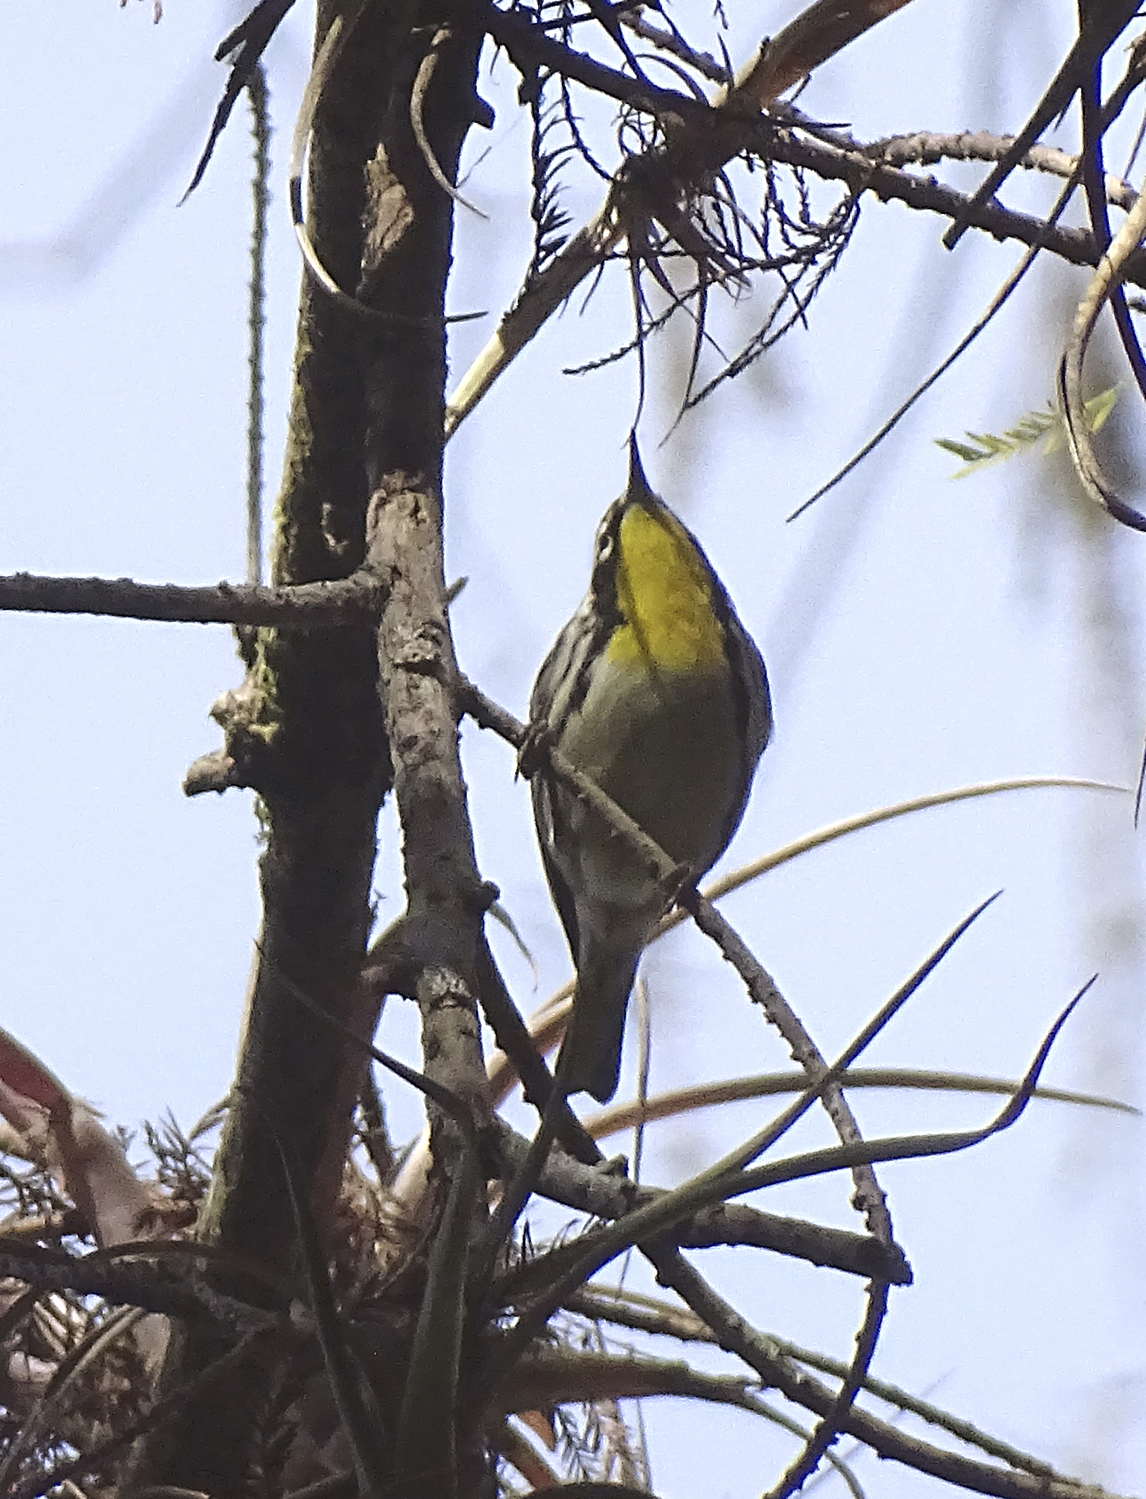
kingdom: Animalia
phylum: Chordata
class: Aves
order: Passeriformes
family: Parulidae
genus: Setophaga
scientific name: Setophaga dominica
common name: Yellow-throated warbler
